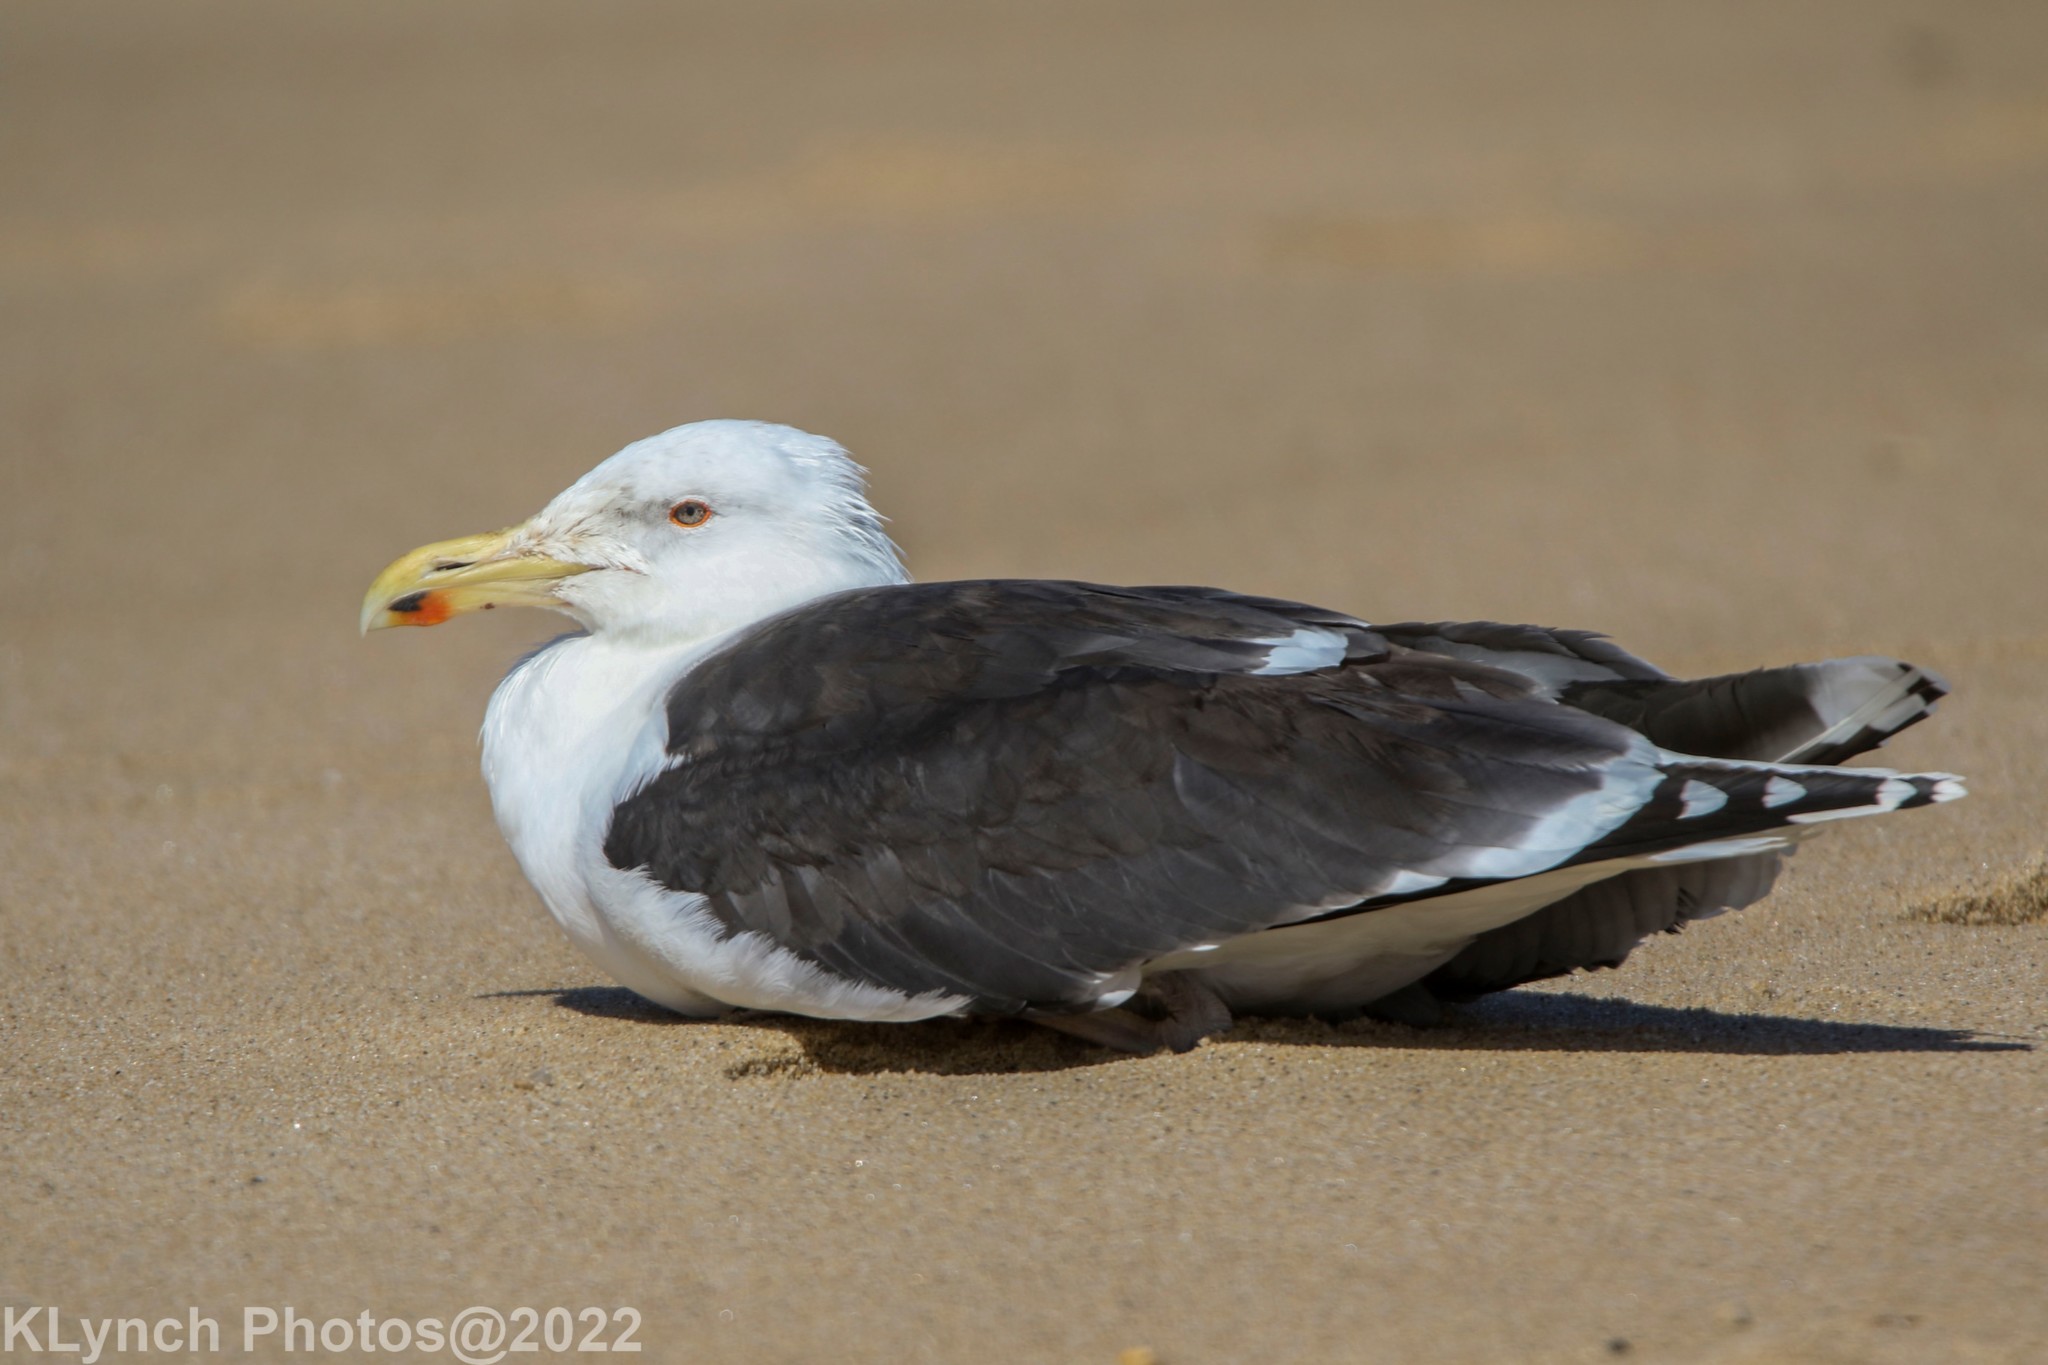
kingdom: Animalia
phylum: Chordata
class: Aves
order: Charadriiformes
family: Laridae
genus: Larus
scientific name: Larus marinus
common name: Great black-backed gull
